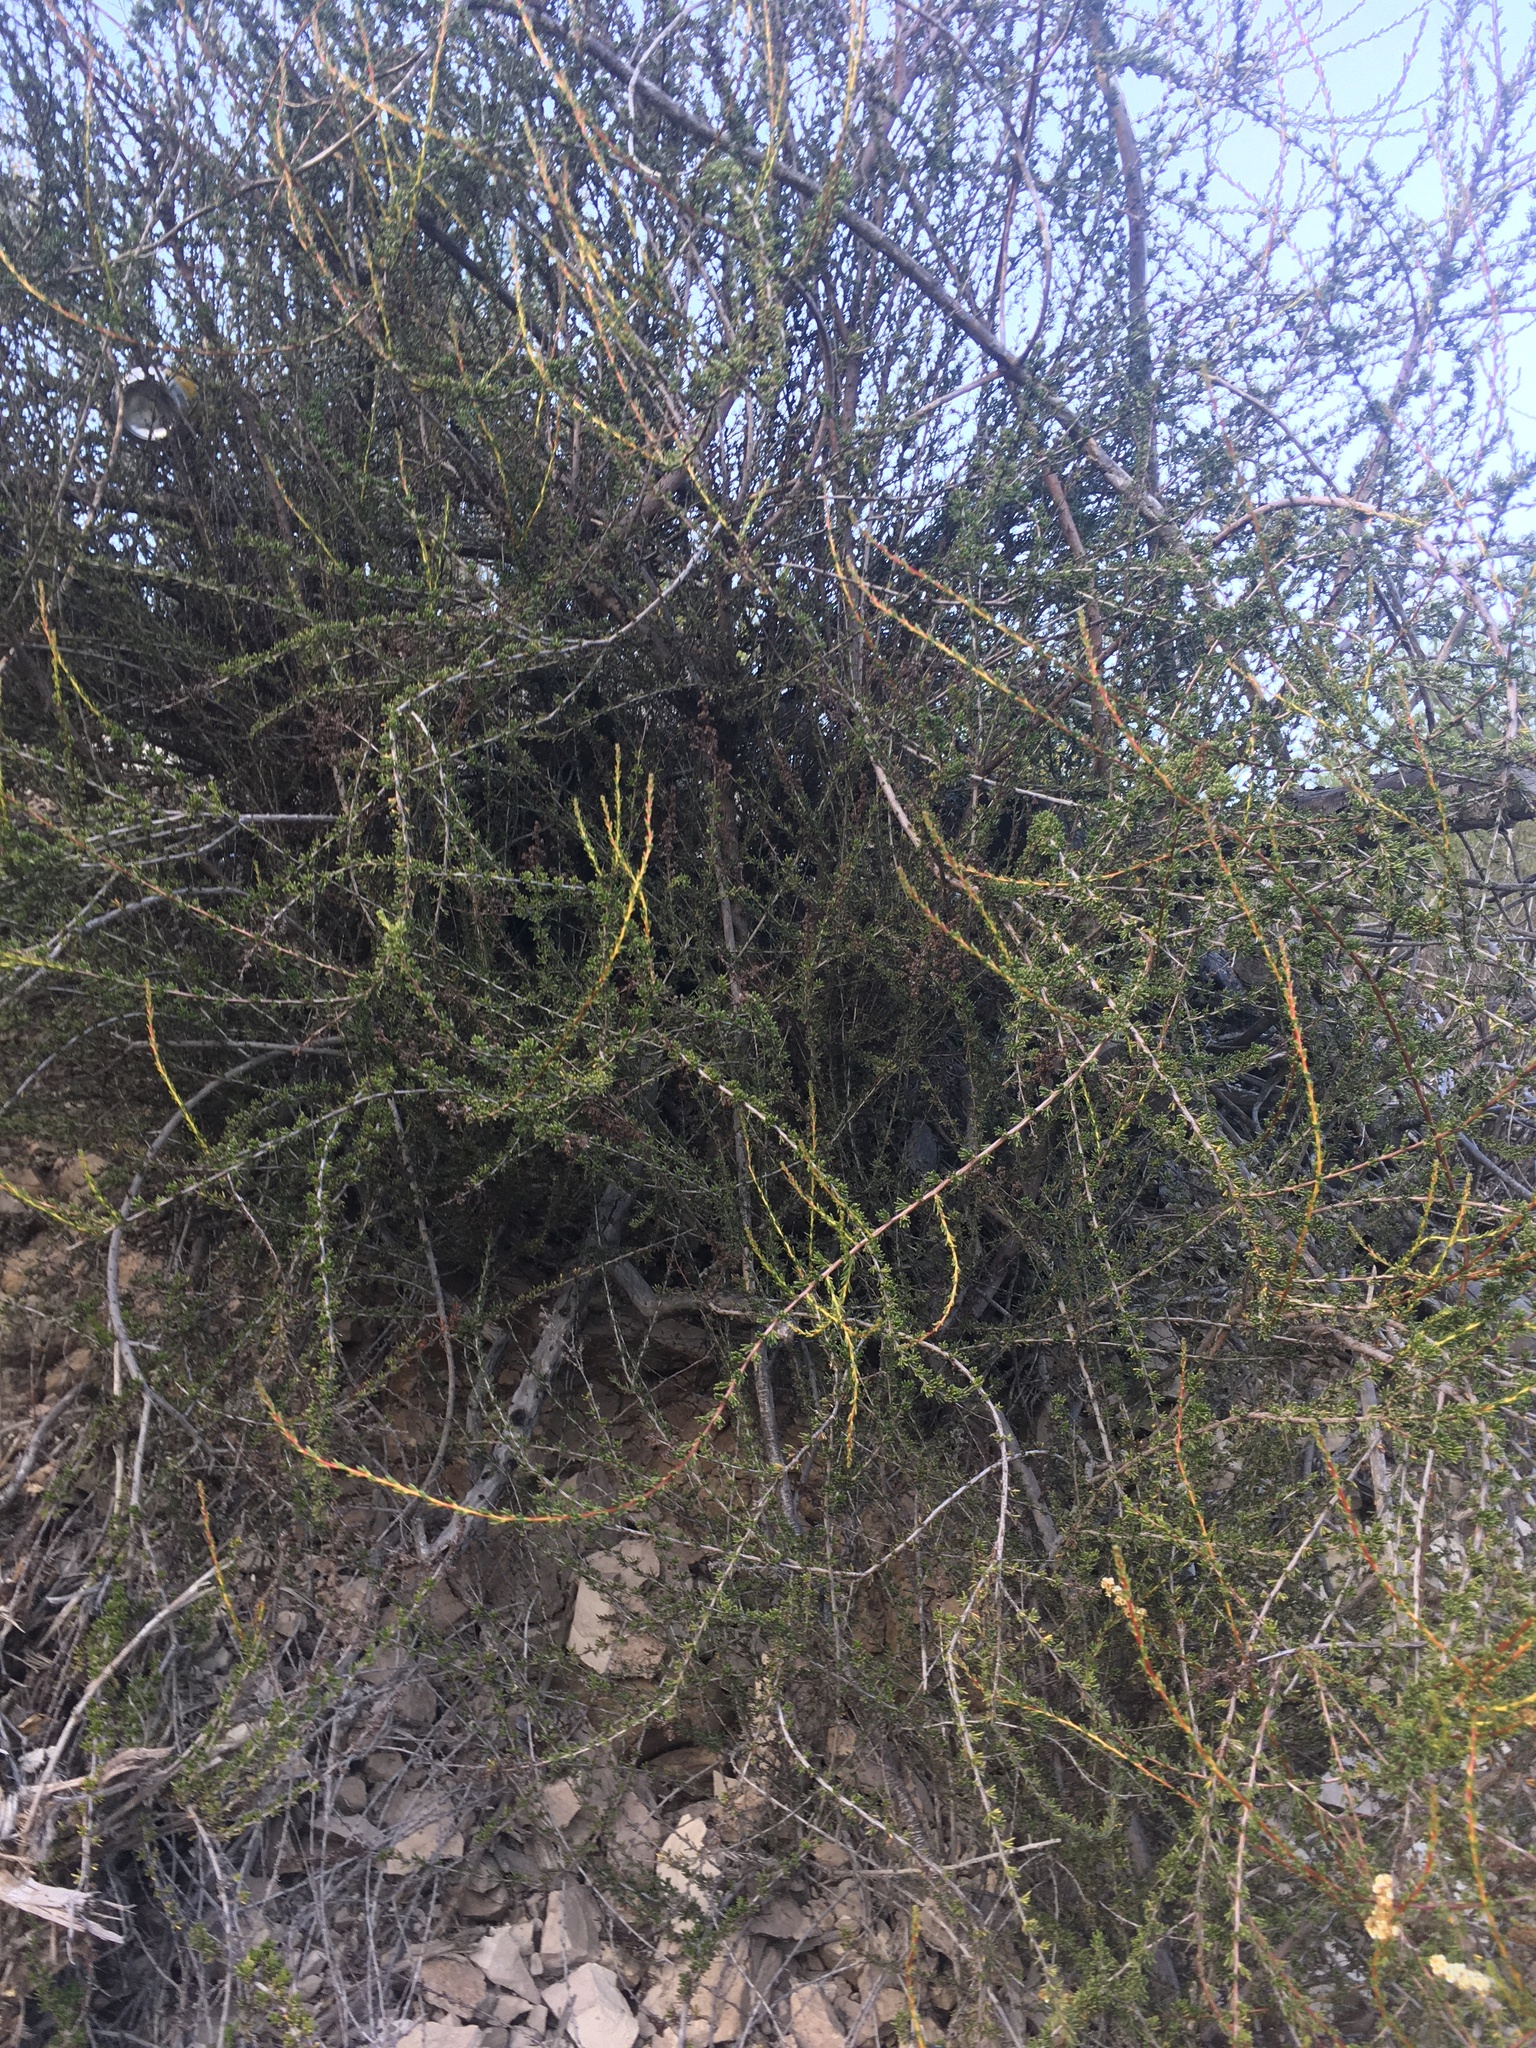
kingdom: Plantae
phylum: Tracheophyta
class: Magnoliopsida
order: Rosales
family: Rosaceae
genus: Adenostoma
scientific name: Adenostoma fasciculatum
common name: Chamise
